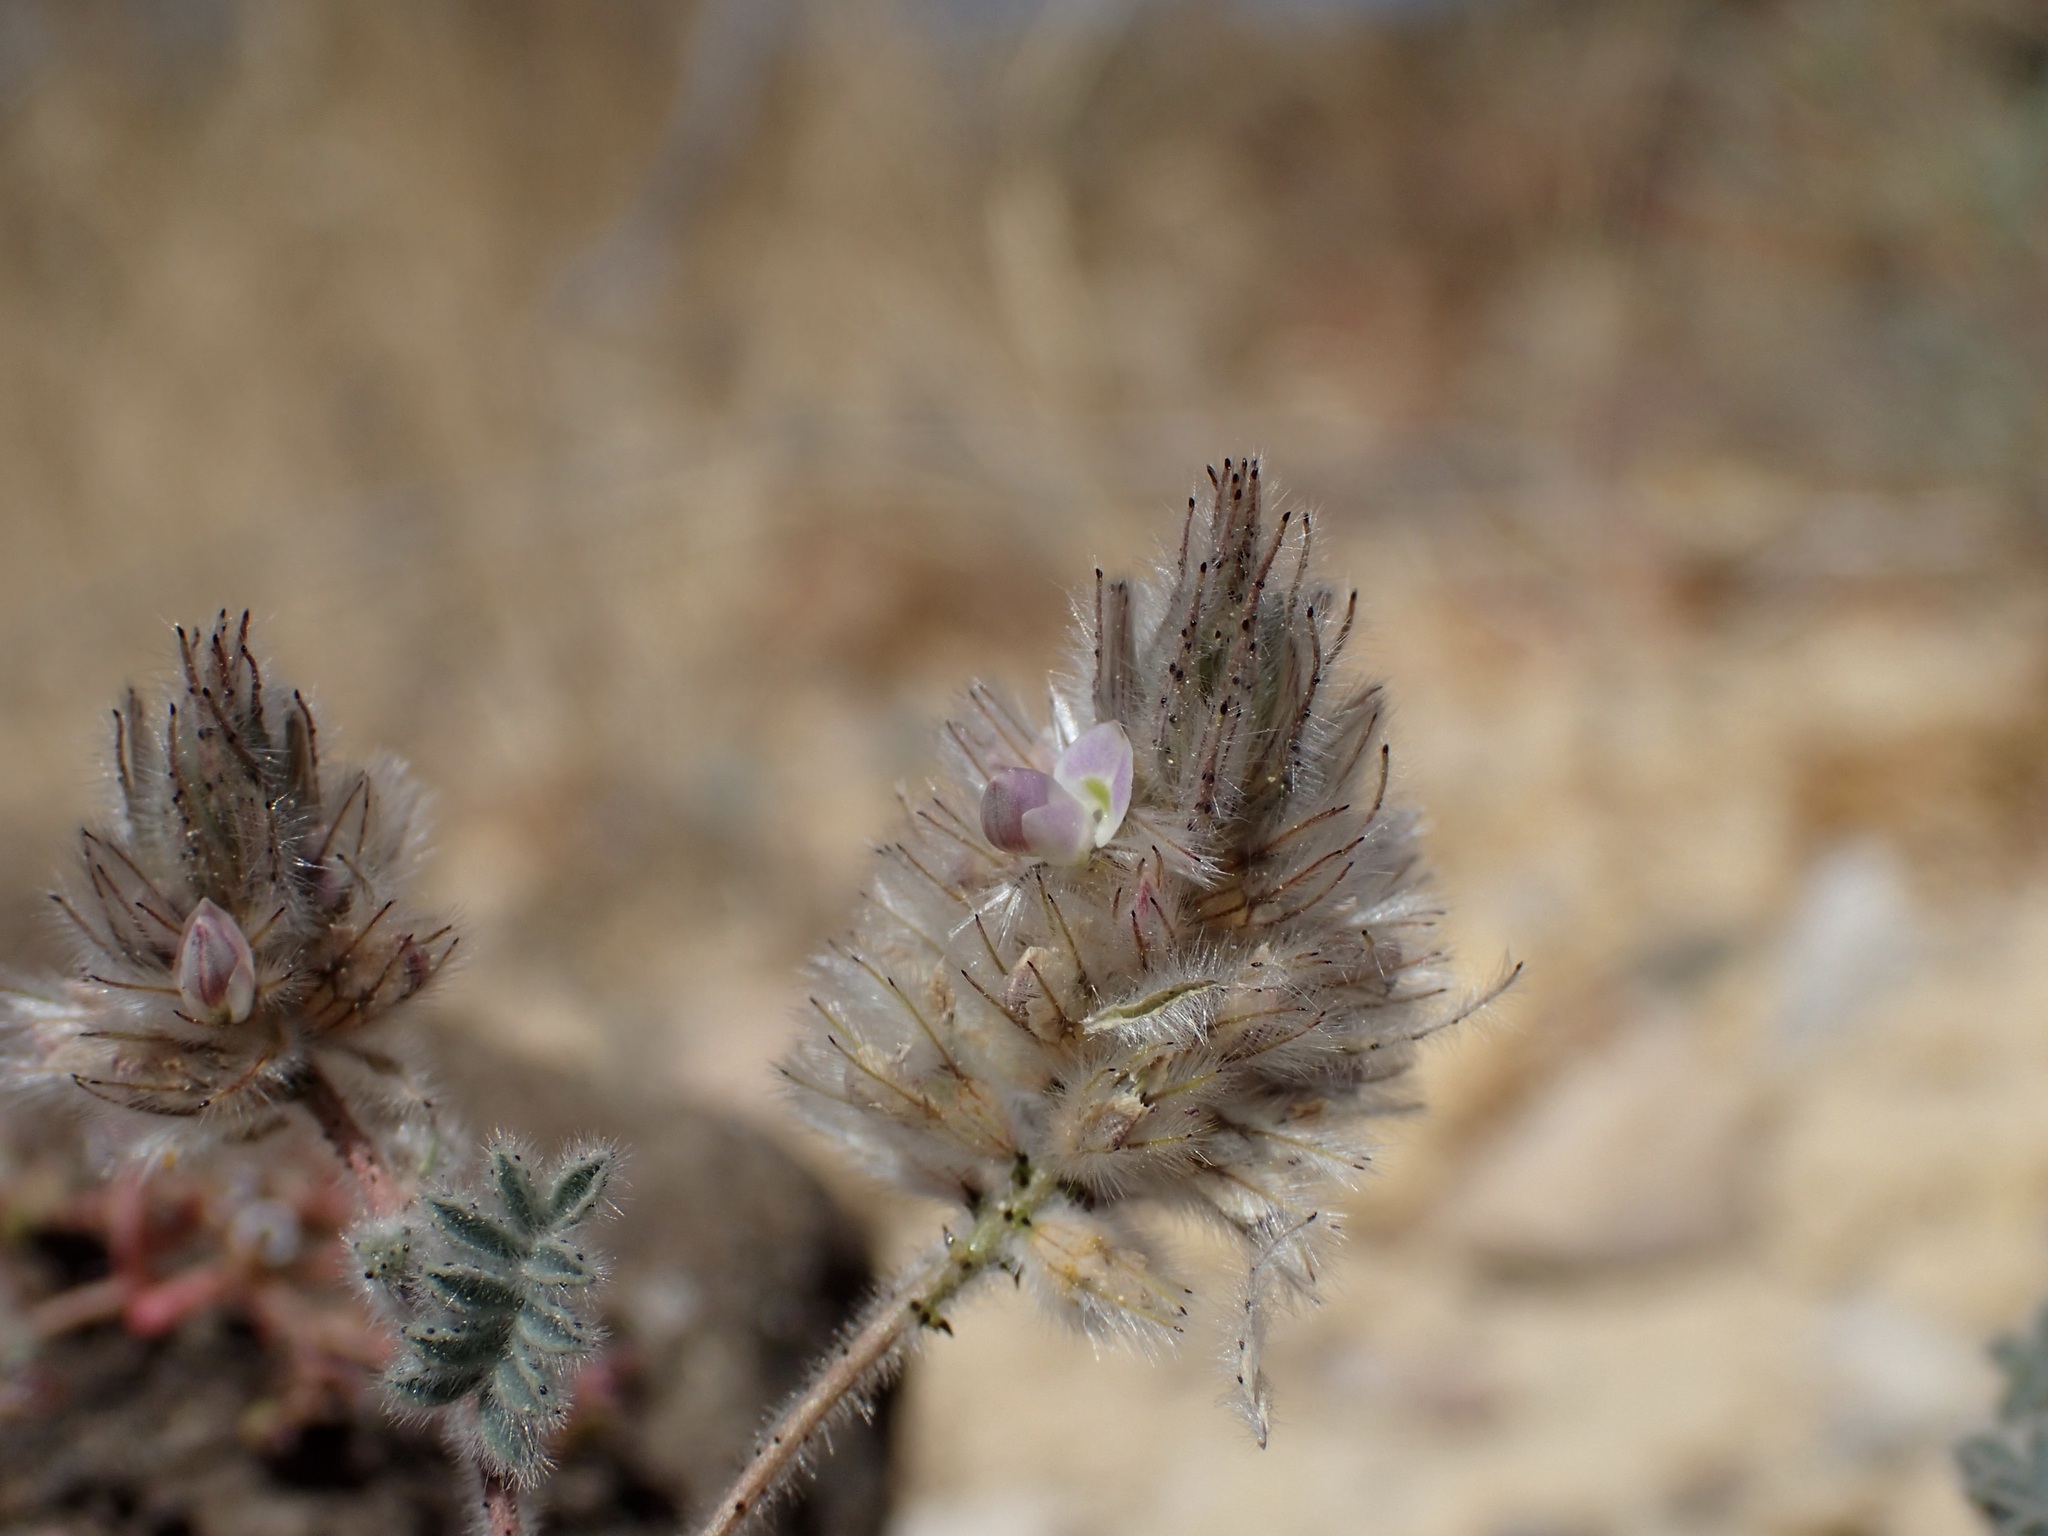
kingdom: Plantae
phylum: Tracheophyta
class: Magnoliopsida
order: Fabales
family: Fabaceae
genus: Dalea
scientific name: Dalea mollis
